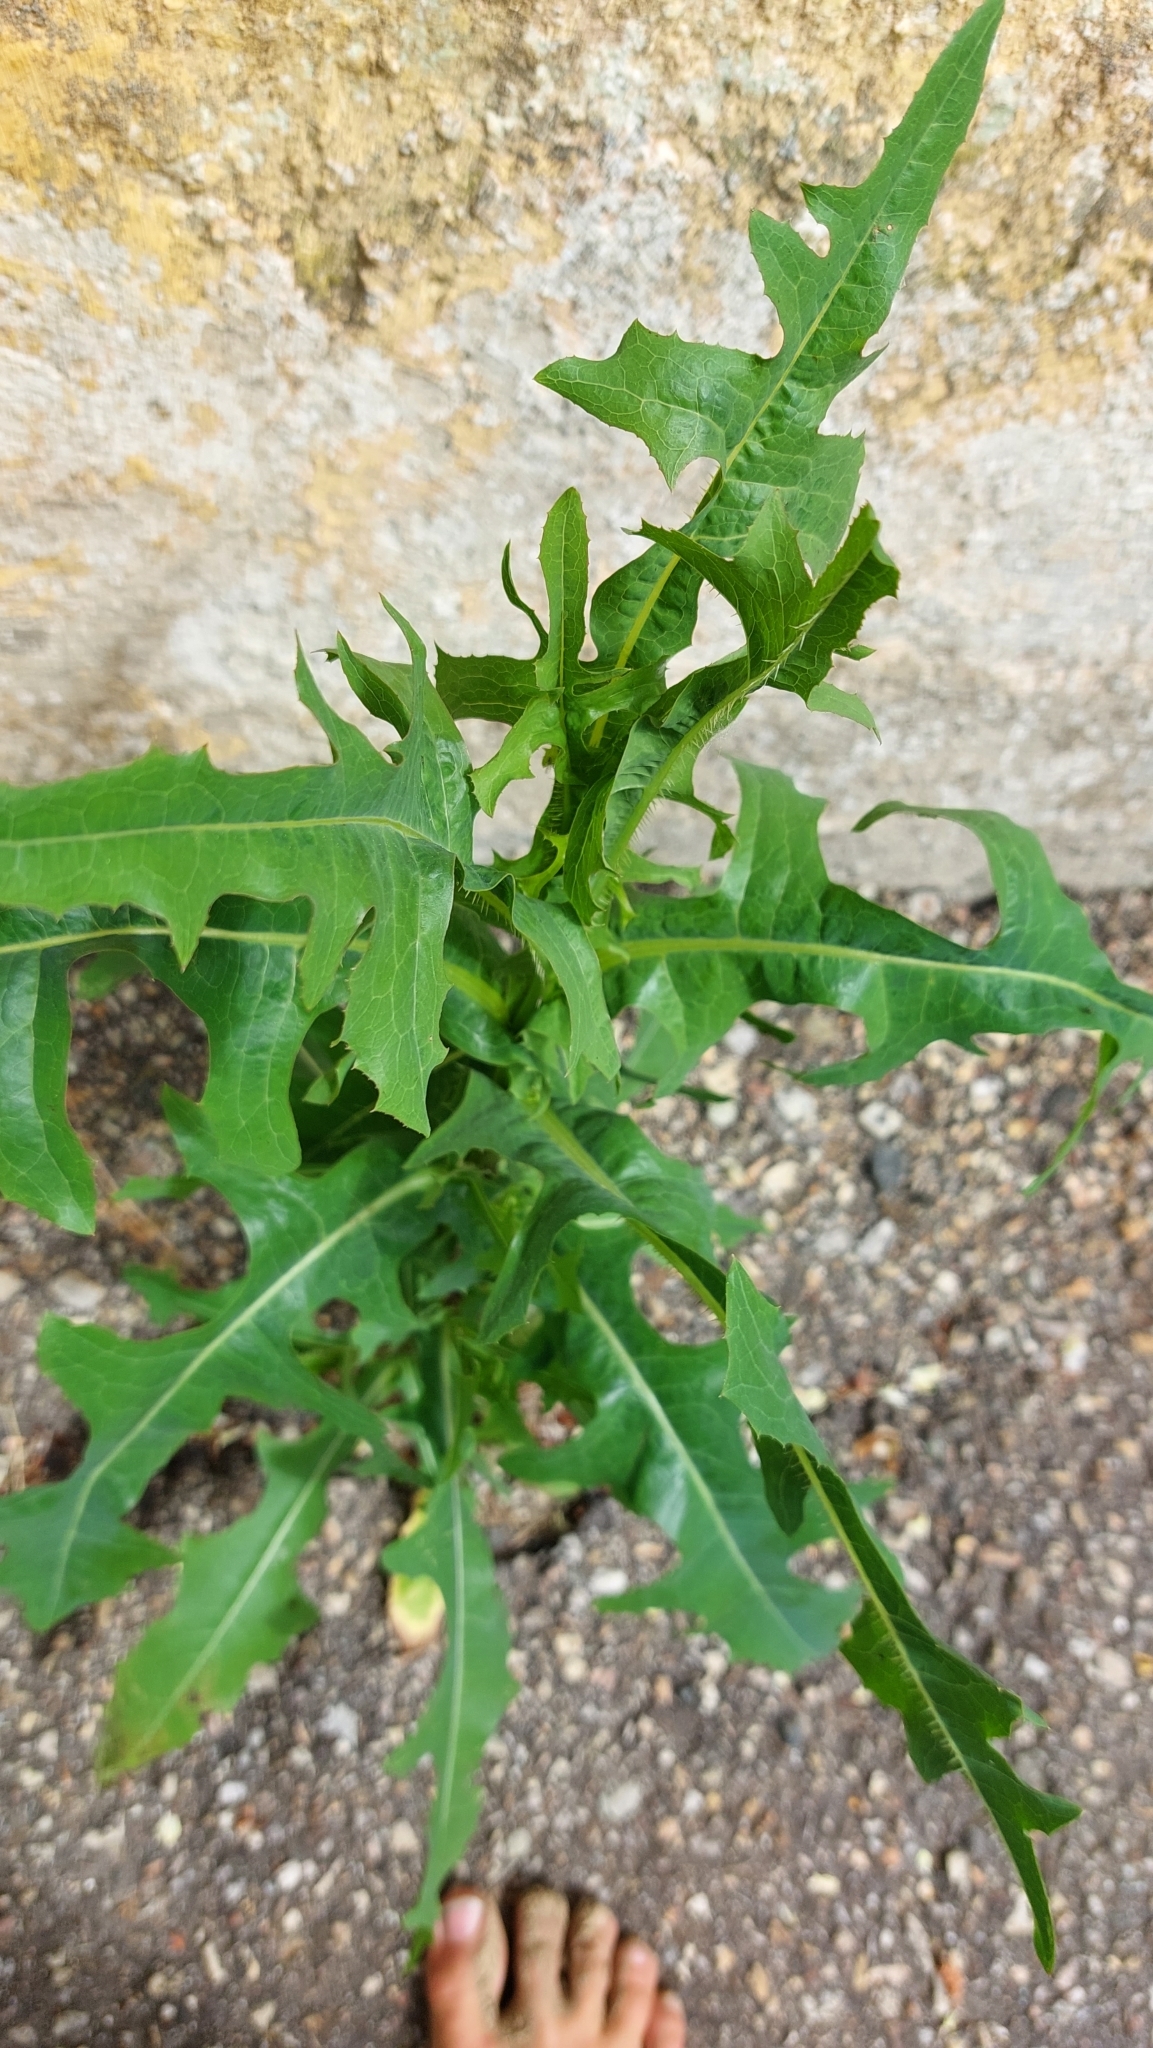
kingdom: Plantae
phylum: Tracheophyta
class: Magnoliopsida
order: Asterales
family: Asteraceae
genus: Lactuca
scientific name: Lactuca serriola
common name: Prickly lettuce
